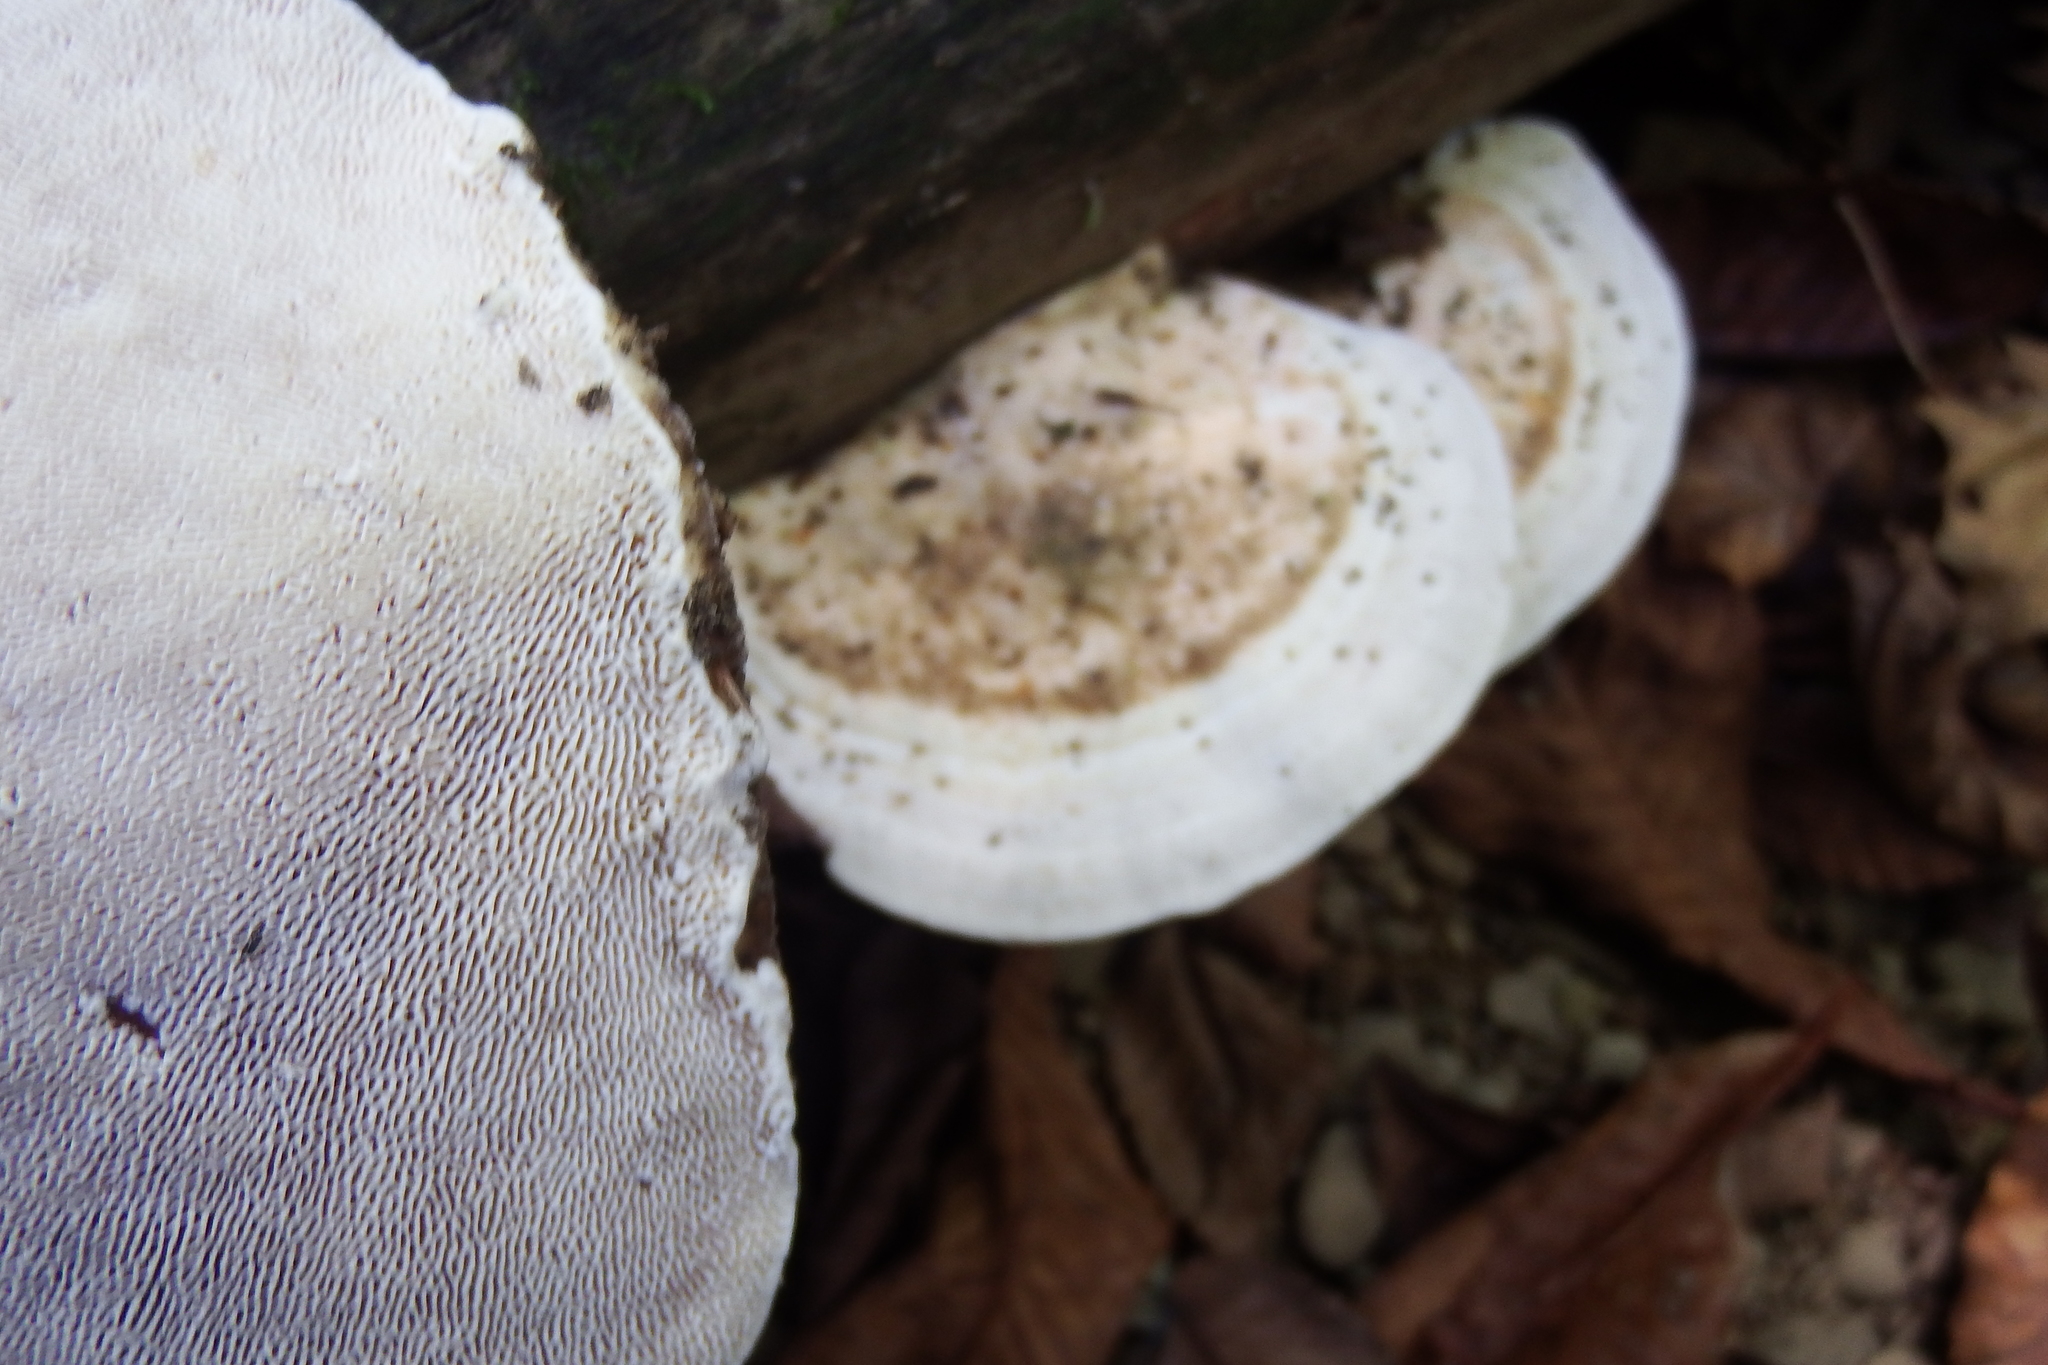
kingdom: Fungi
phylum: Basidiomycota
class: Agaricomycetes
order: Polyporales
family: Polyporaceae
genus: Trametes
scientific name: Trametes gibbosa
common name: Lumpy bracket
